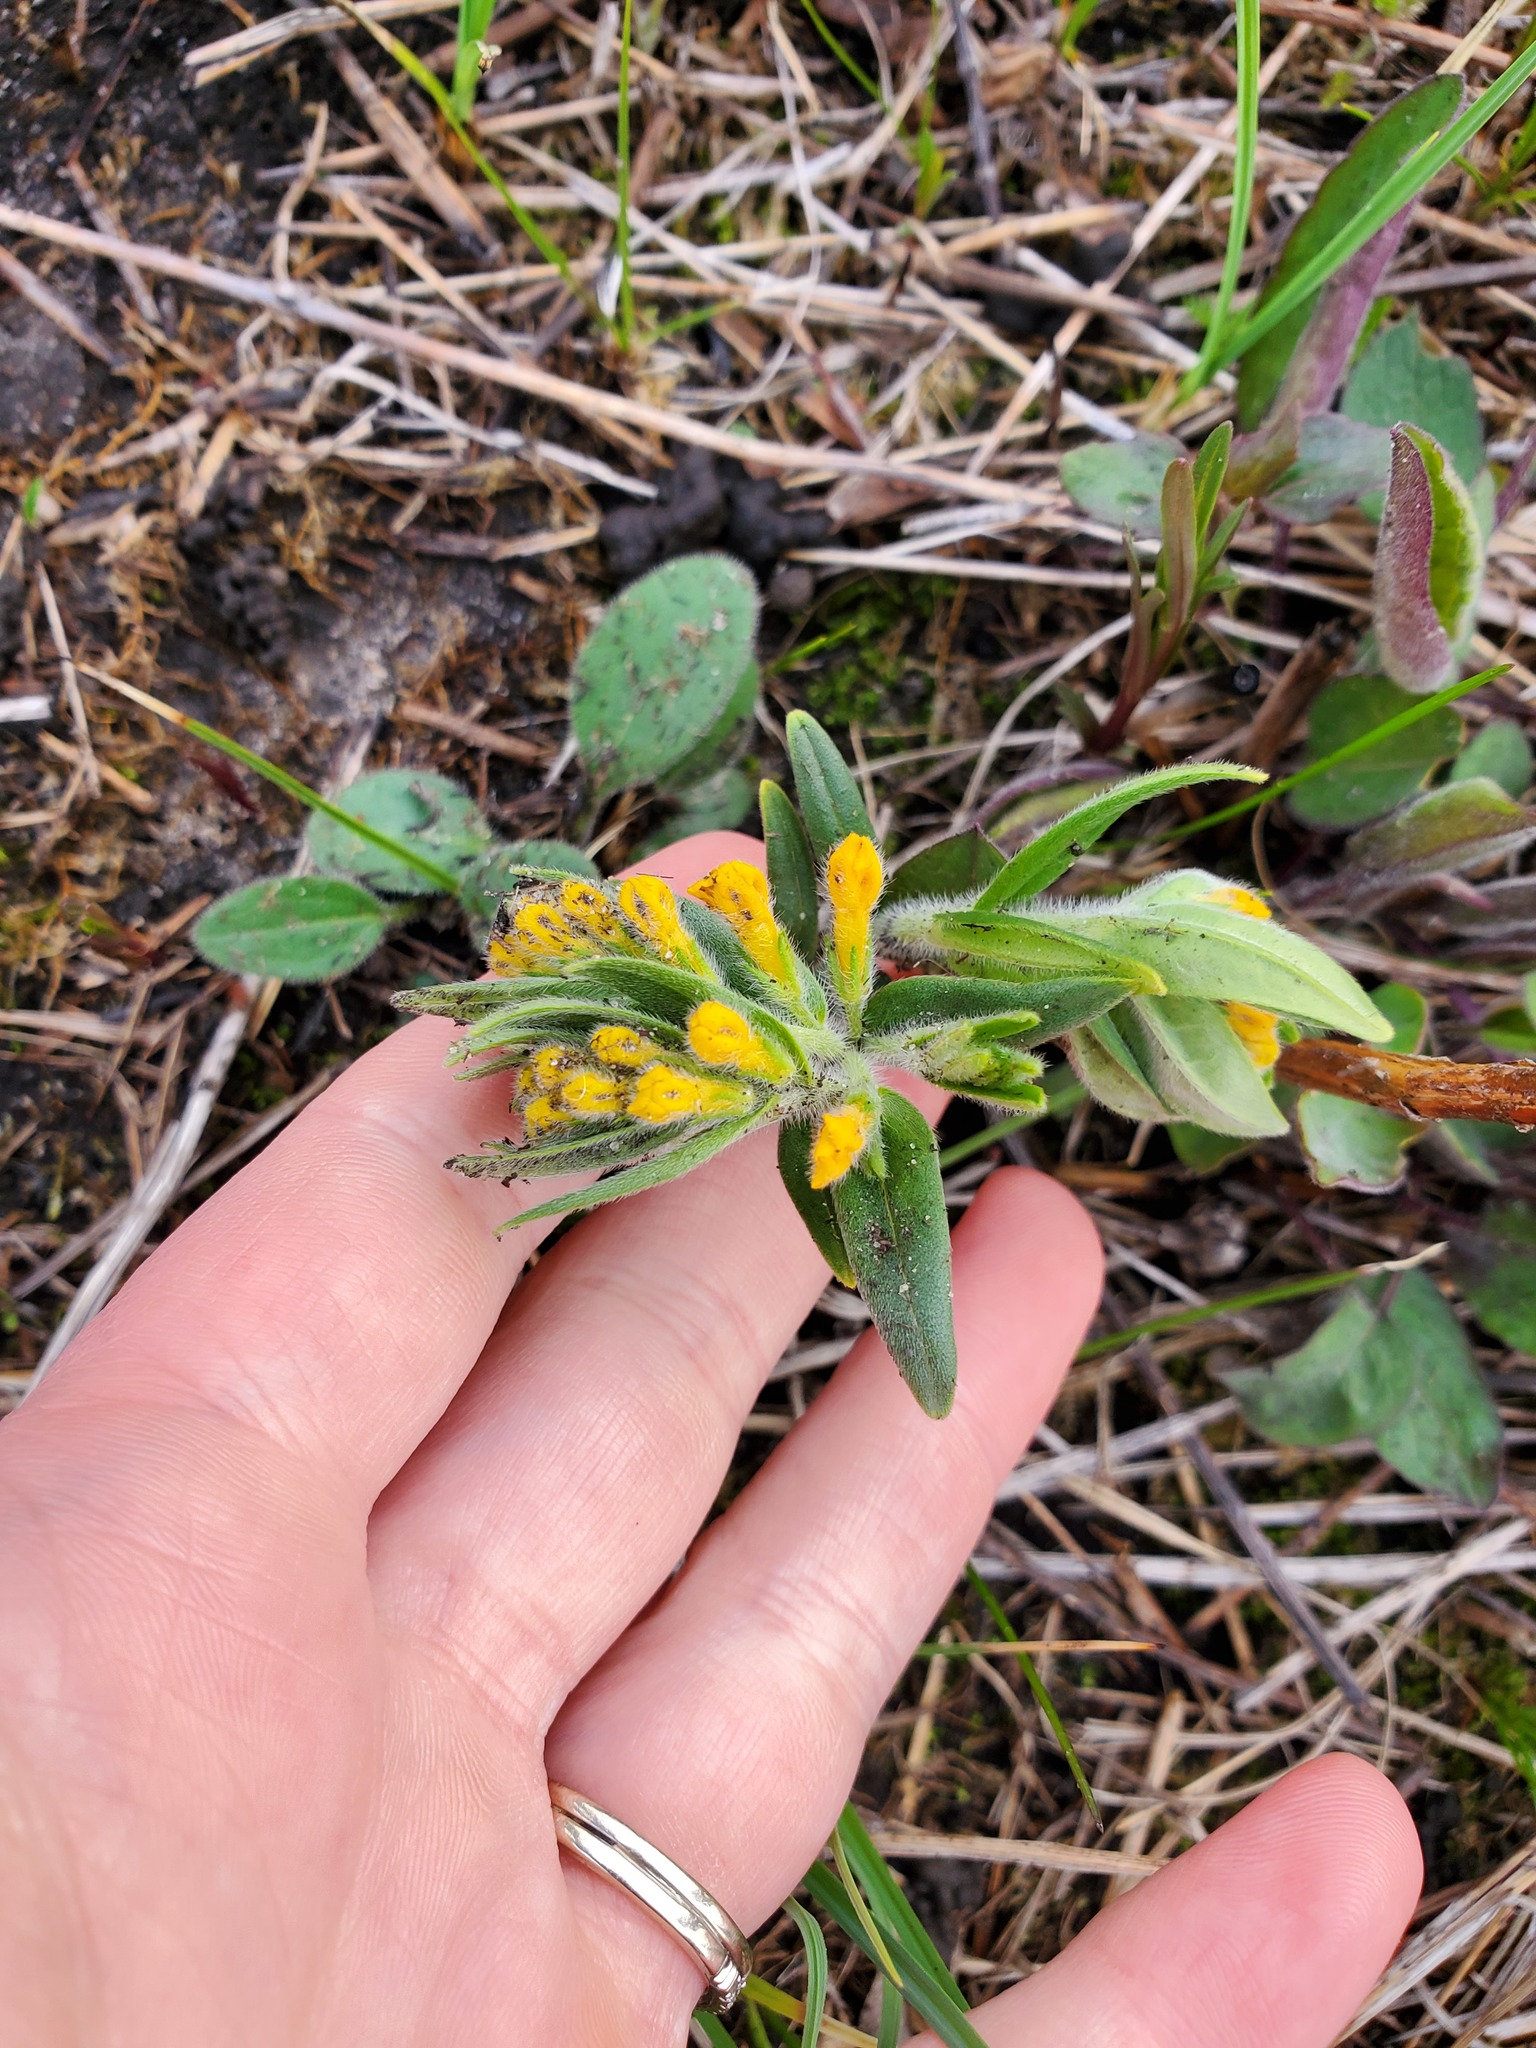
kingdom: Plantae
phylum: Tracheophyta
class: Magnoliopsida
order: Boraginales
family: Boraginaceae
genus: Lithospermum
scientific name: Lithospermum canescens
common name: Hoary puccoon
